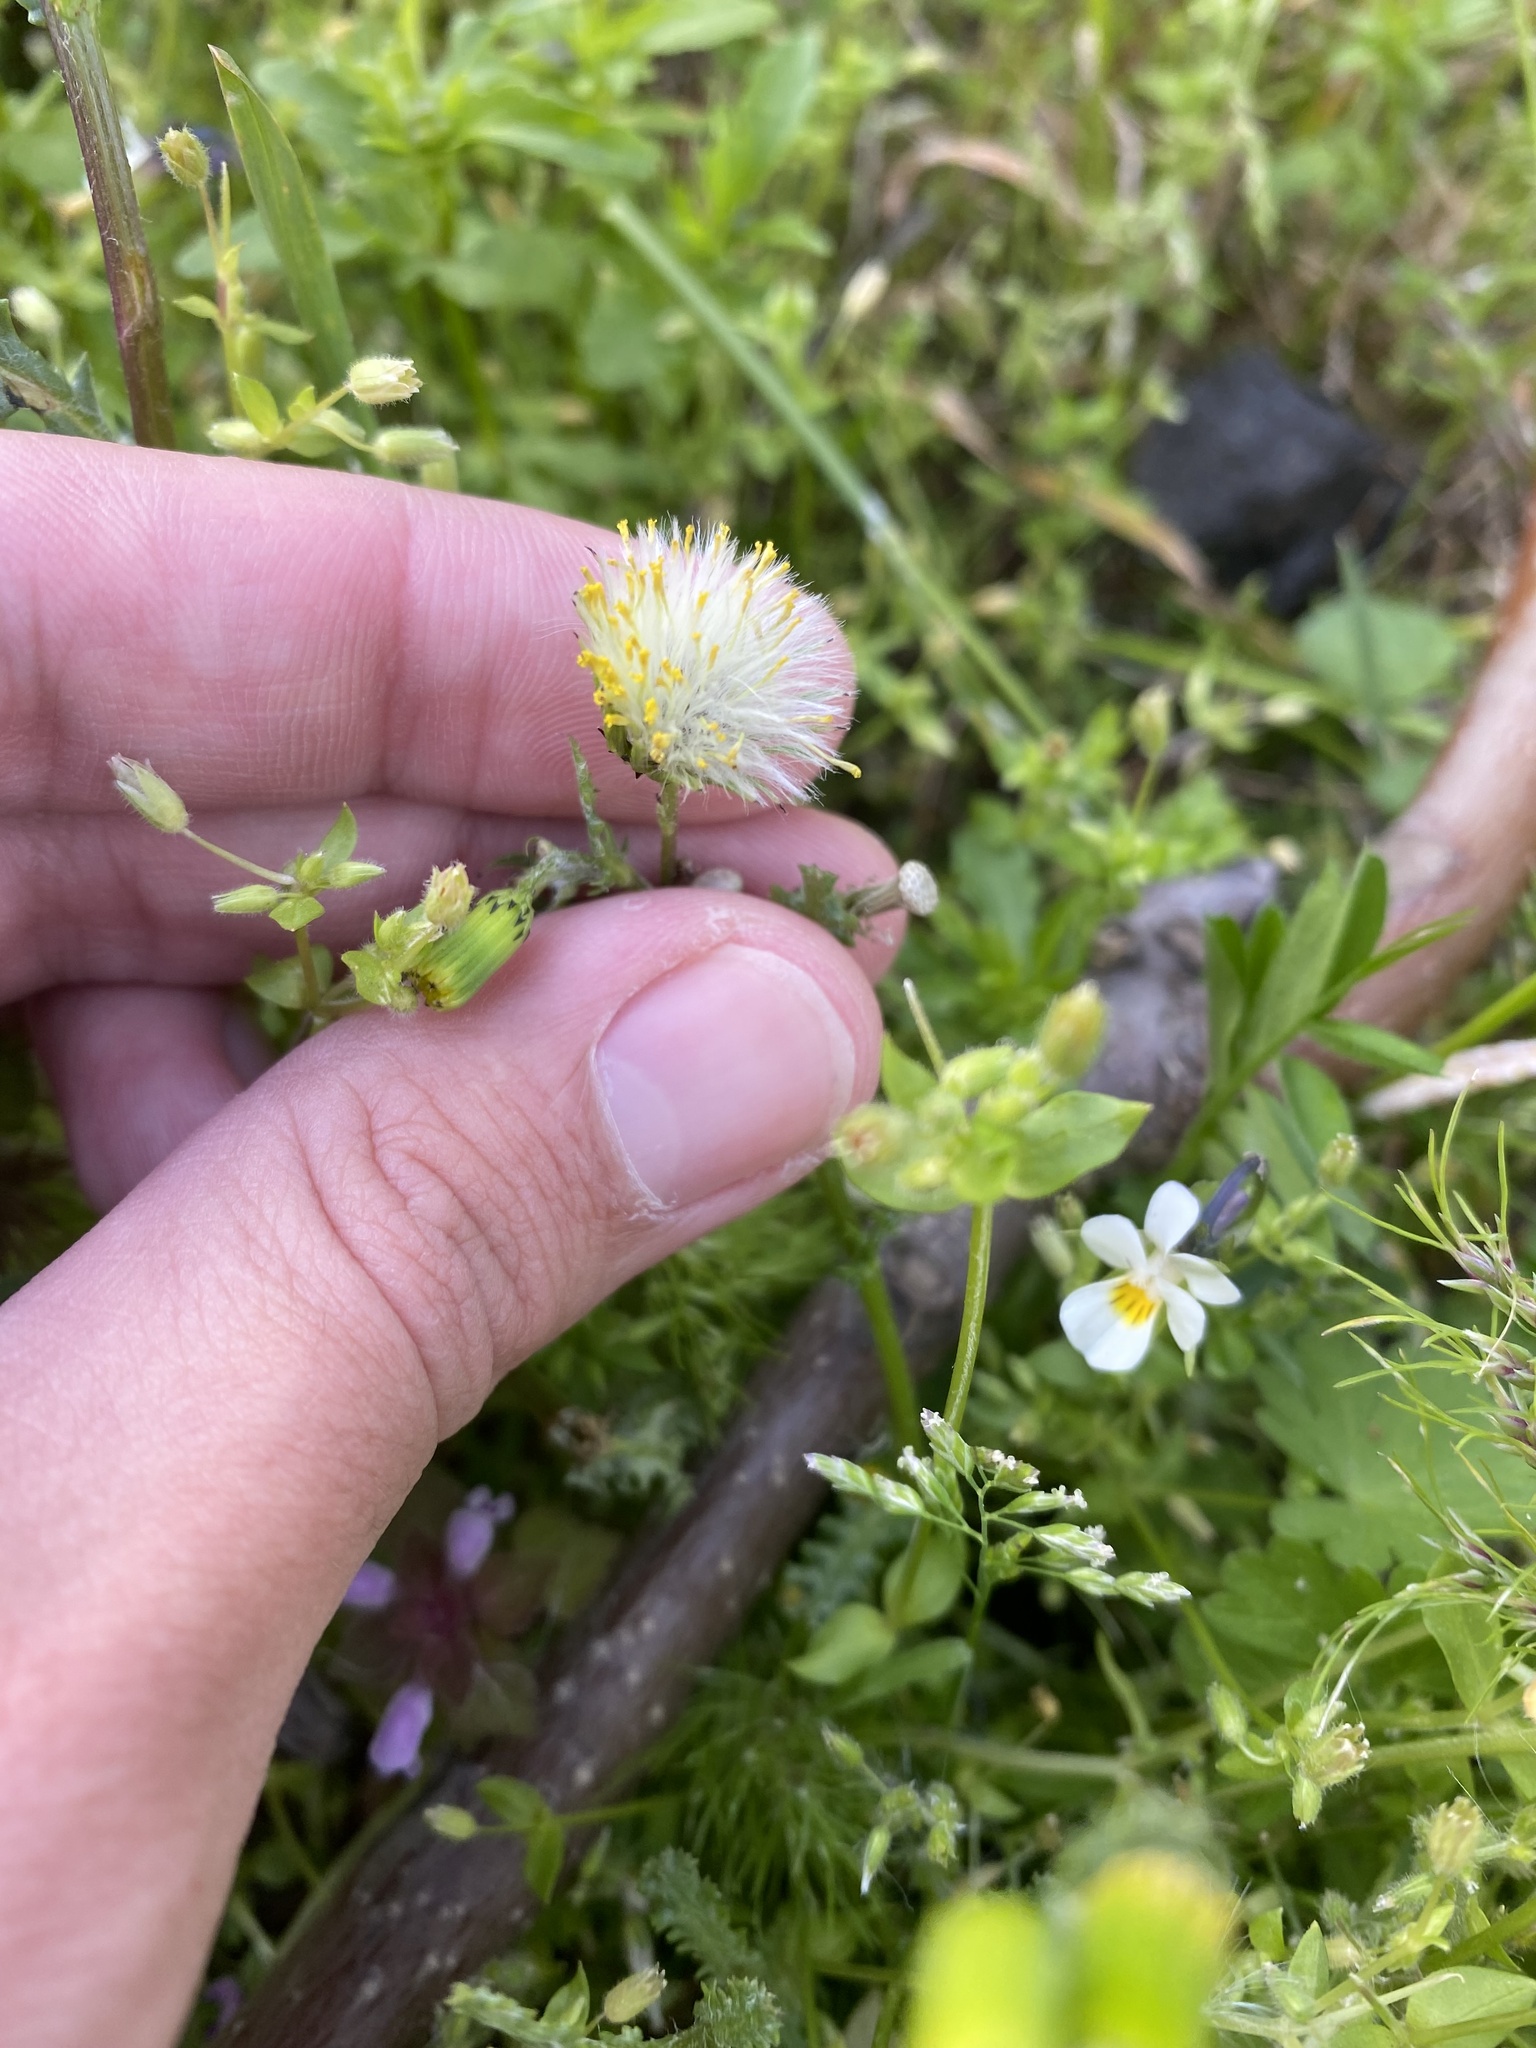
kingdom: Plantae
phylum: Tracheophyta
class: Magnoliopsida
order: Asterales
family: Asteraceae
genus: Senecio
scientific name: Senecio vulgaris
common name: Old-man-in-the-spring
